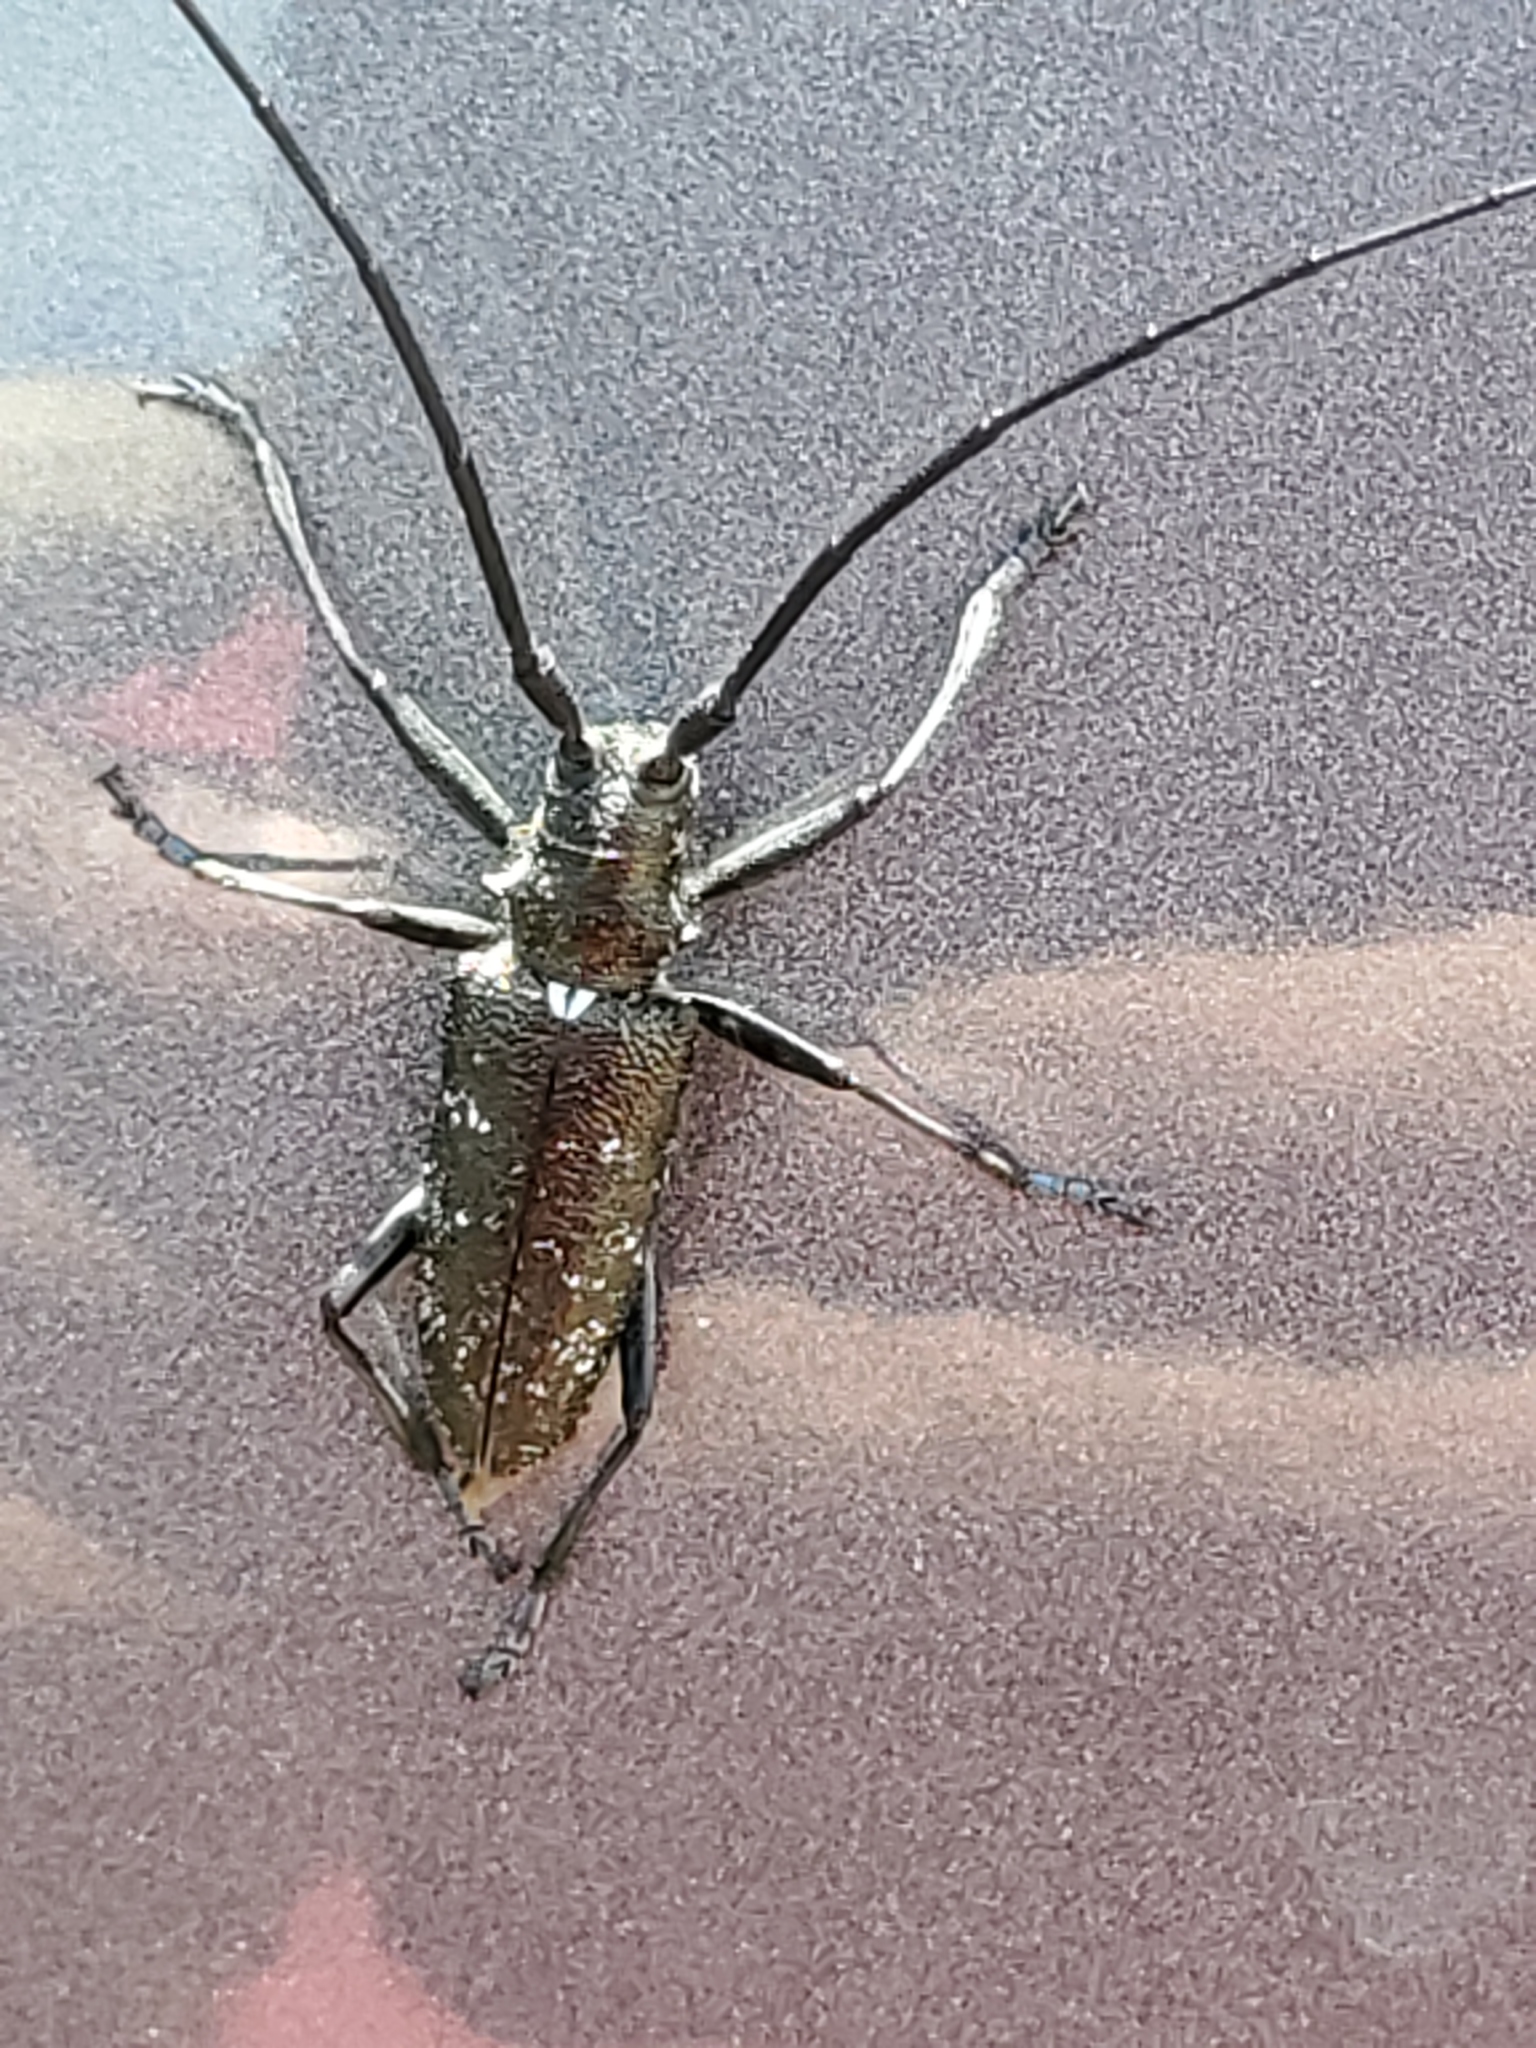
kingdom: Animalia
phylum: Arthropoda
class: Insecta
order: Coleoptera
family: Cerambycidae
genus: Monochamus
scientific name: Monochamus scutellatus
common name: White-spotted sawyer beetle
